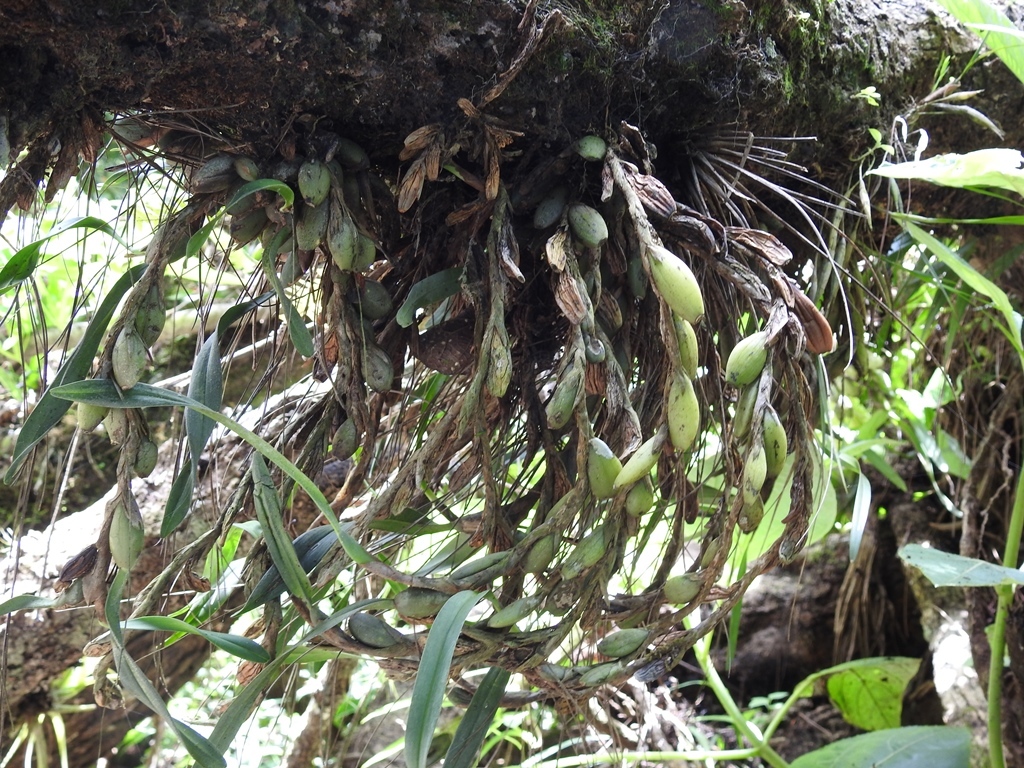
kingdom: Plantae
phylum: Tracheophyta
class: Liliopsida
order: Asparagales
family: Orchidaceae
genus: Maxillaria
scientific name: Maxillaria variabilis
